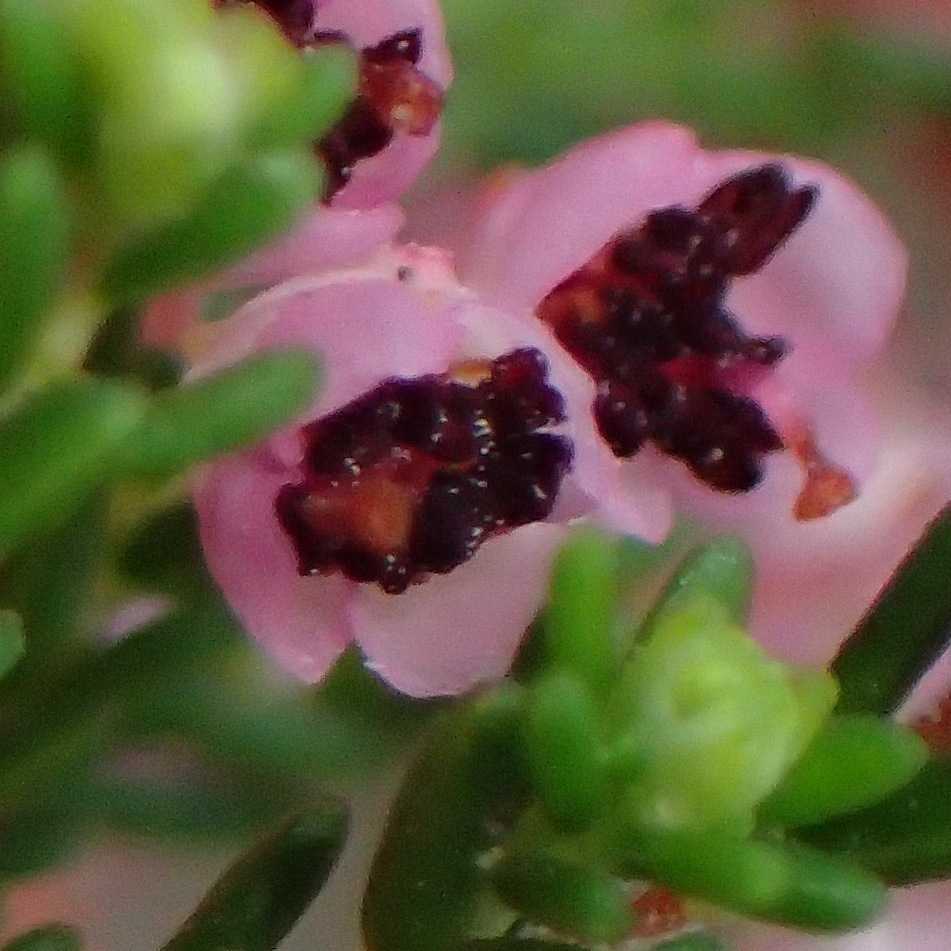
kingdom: Plantae
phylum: Tracheophyta
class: Magnoliopsida
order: Ericales
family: Ericaceae
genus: Erica
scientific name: Erica sparsa
